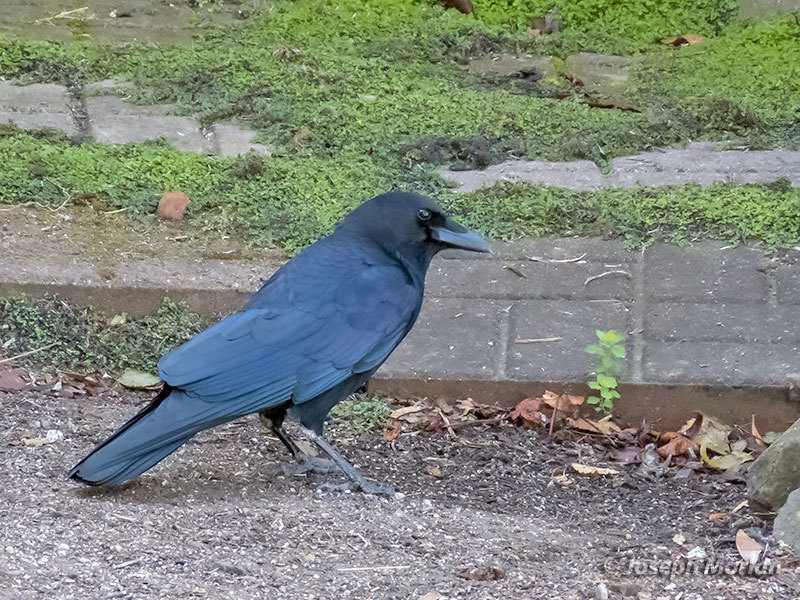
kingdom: Animalia
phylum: Chordata
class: Aves
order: Passeriformes
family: Corvidae
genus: Corvus
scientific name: Corvus brachyrhynchos
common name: American crow
